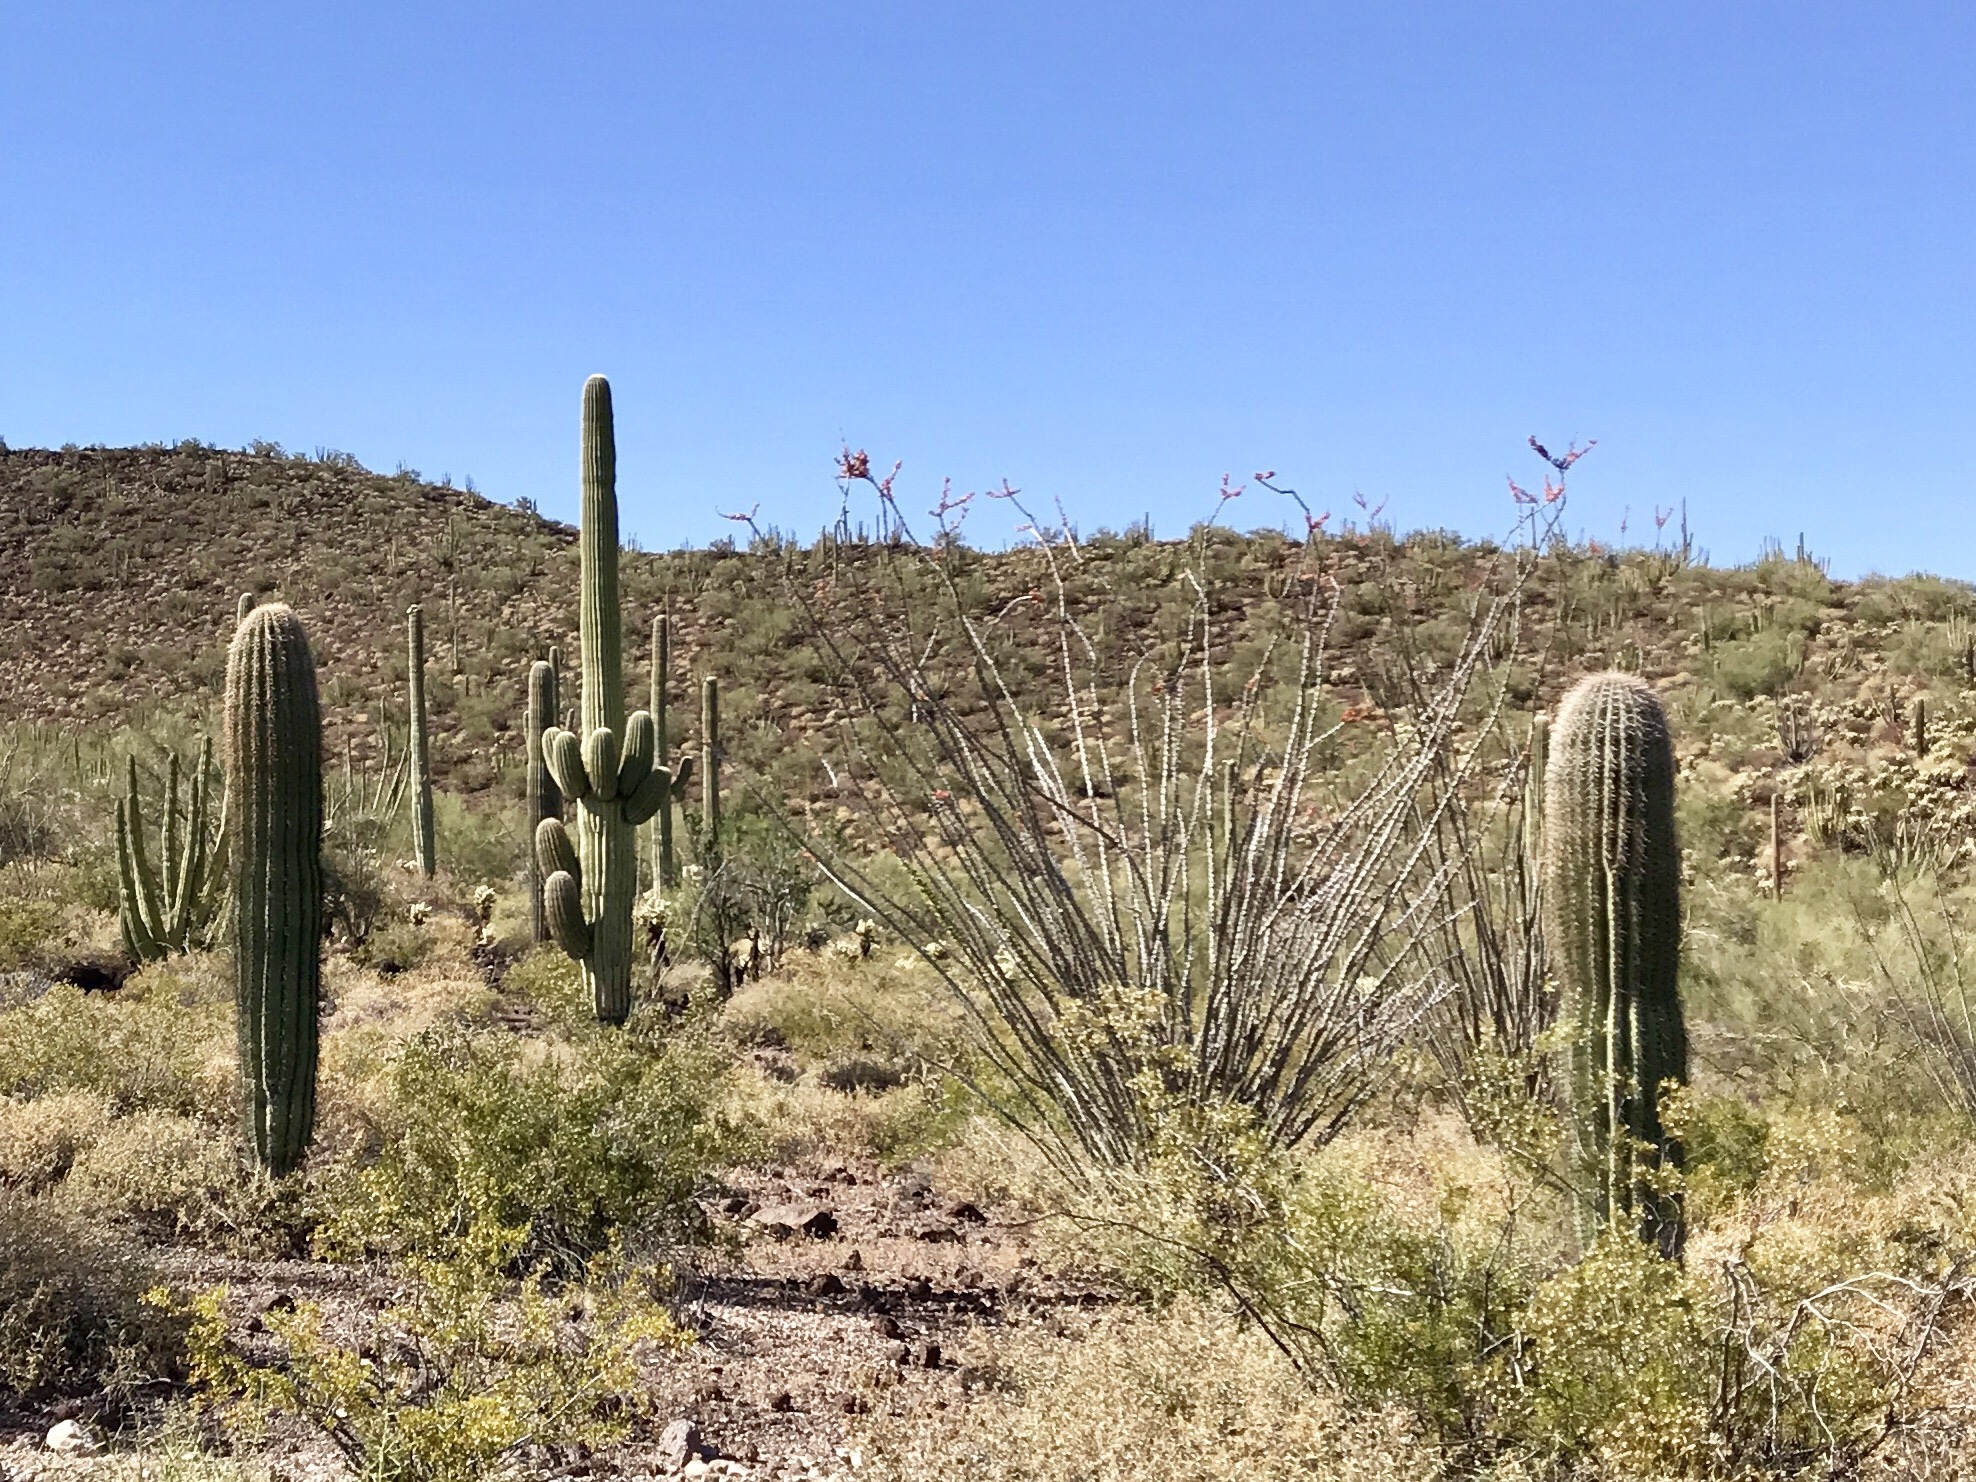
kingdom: Plantae
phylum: Tracheophyta
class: Magnoliopsida
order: Caryophyllales
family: Cactaceae
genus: Carnegiea
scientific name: Carnegiea gigantea
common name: Saguaro
